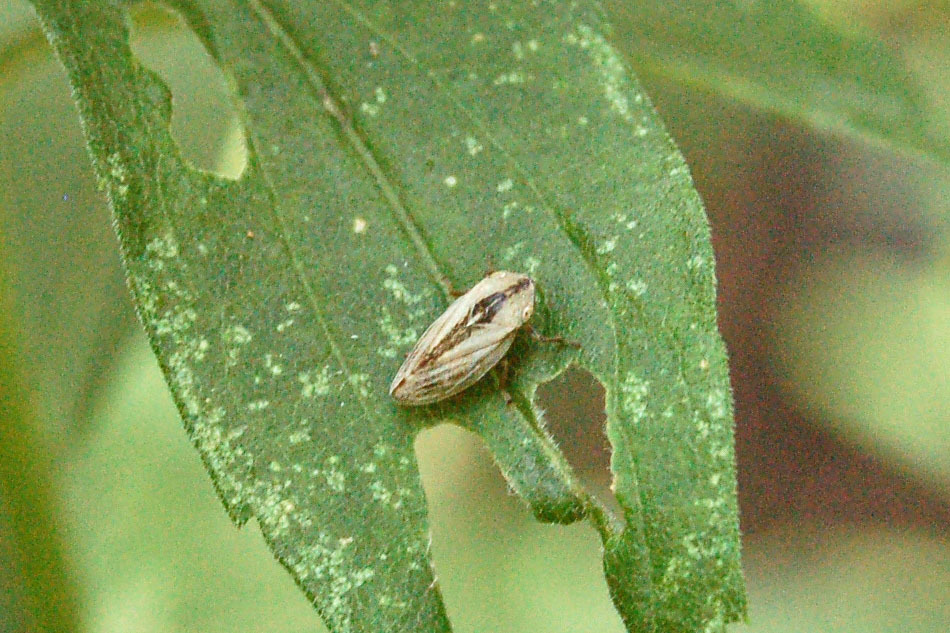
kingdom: Animalia
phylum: Arthropoda
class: Insecta
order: Hemiptera
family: Aphrophoridae
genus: Philaenus
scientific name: Philaenus spumarius
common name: Meadow spittlebug
